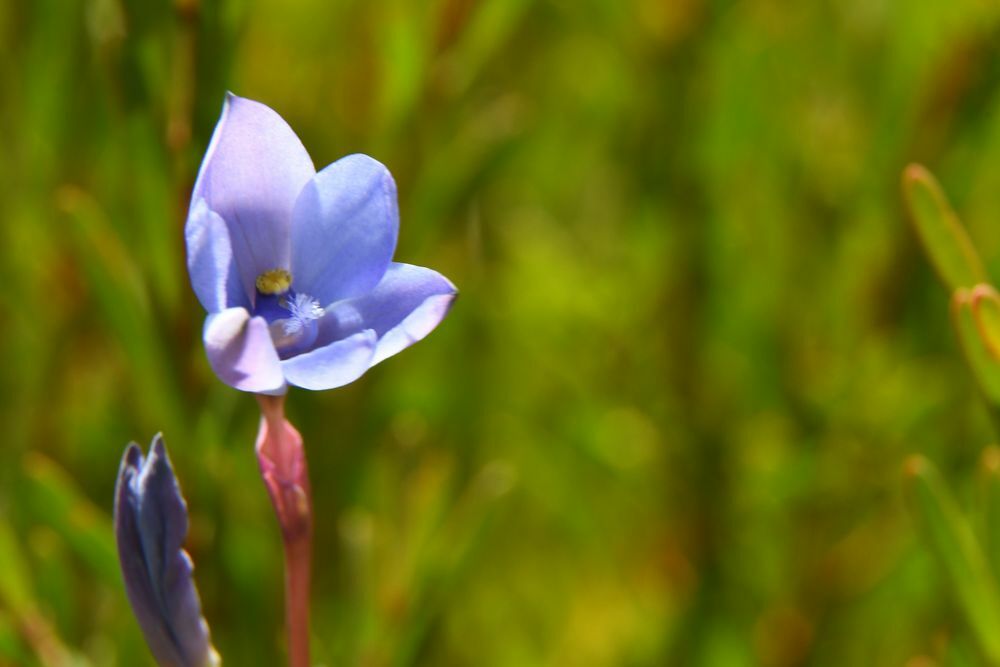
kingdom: Plantae
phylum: Tracheophyta
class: Liliopsida
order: Asparagales
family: Orchidaceae
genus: Thelymitra
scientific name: Thelymitra cornicina
